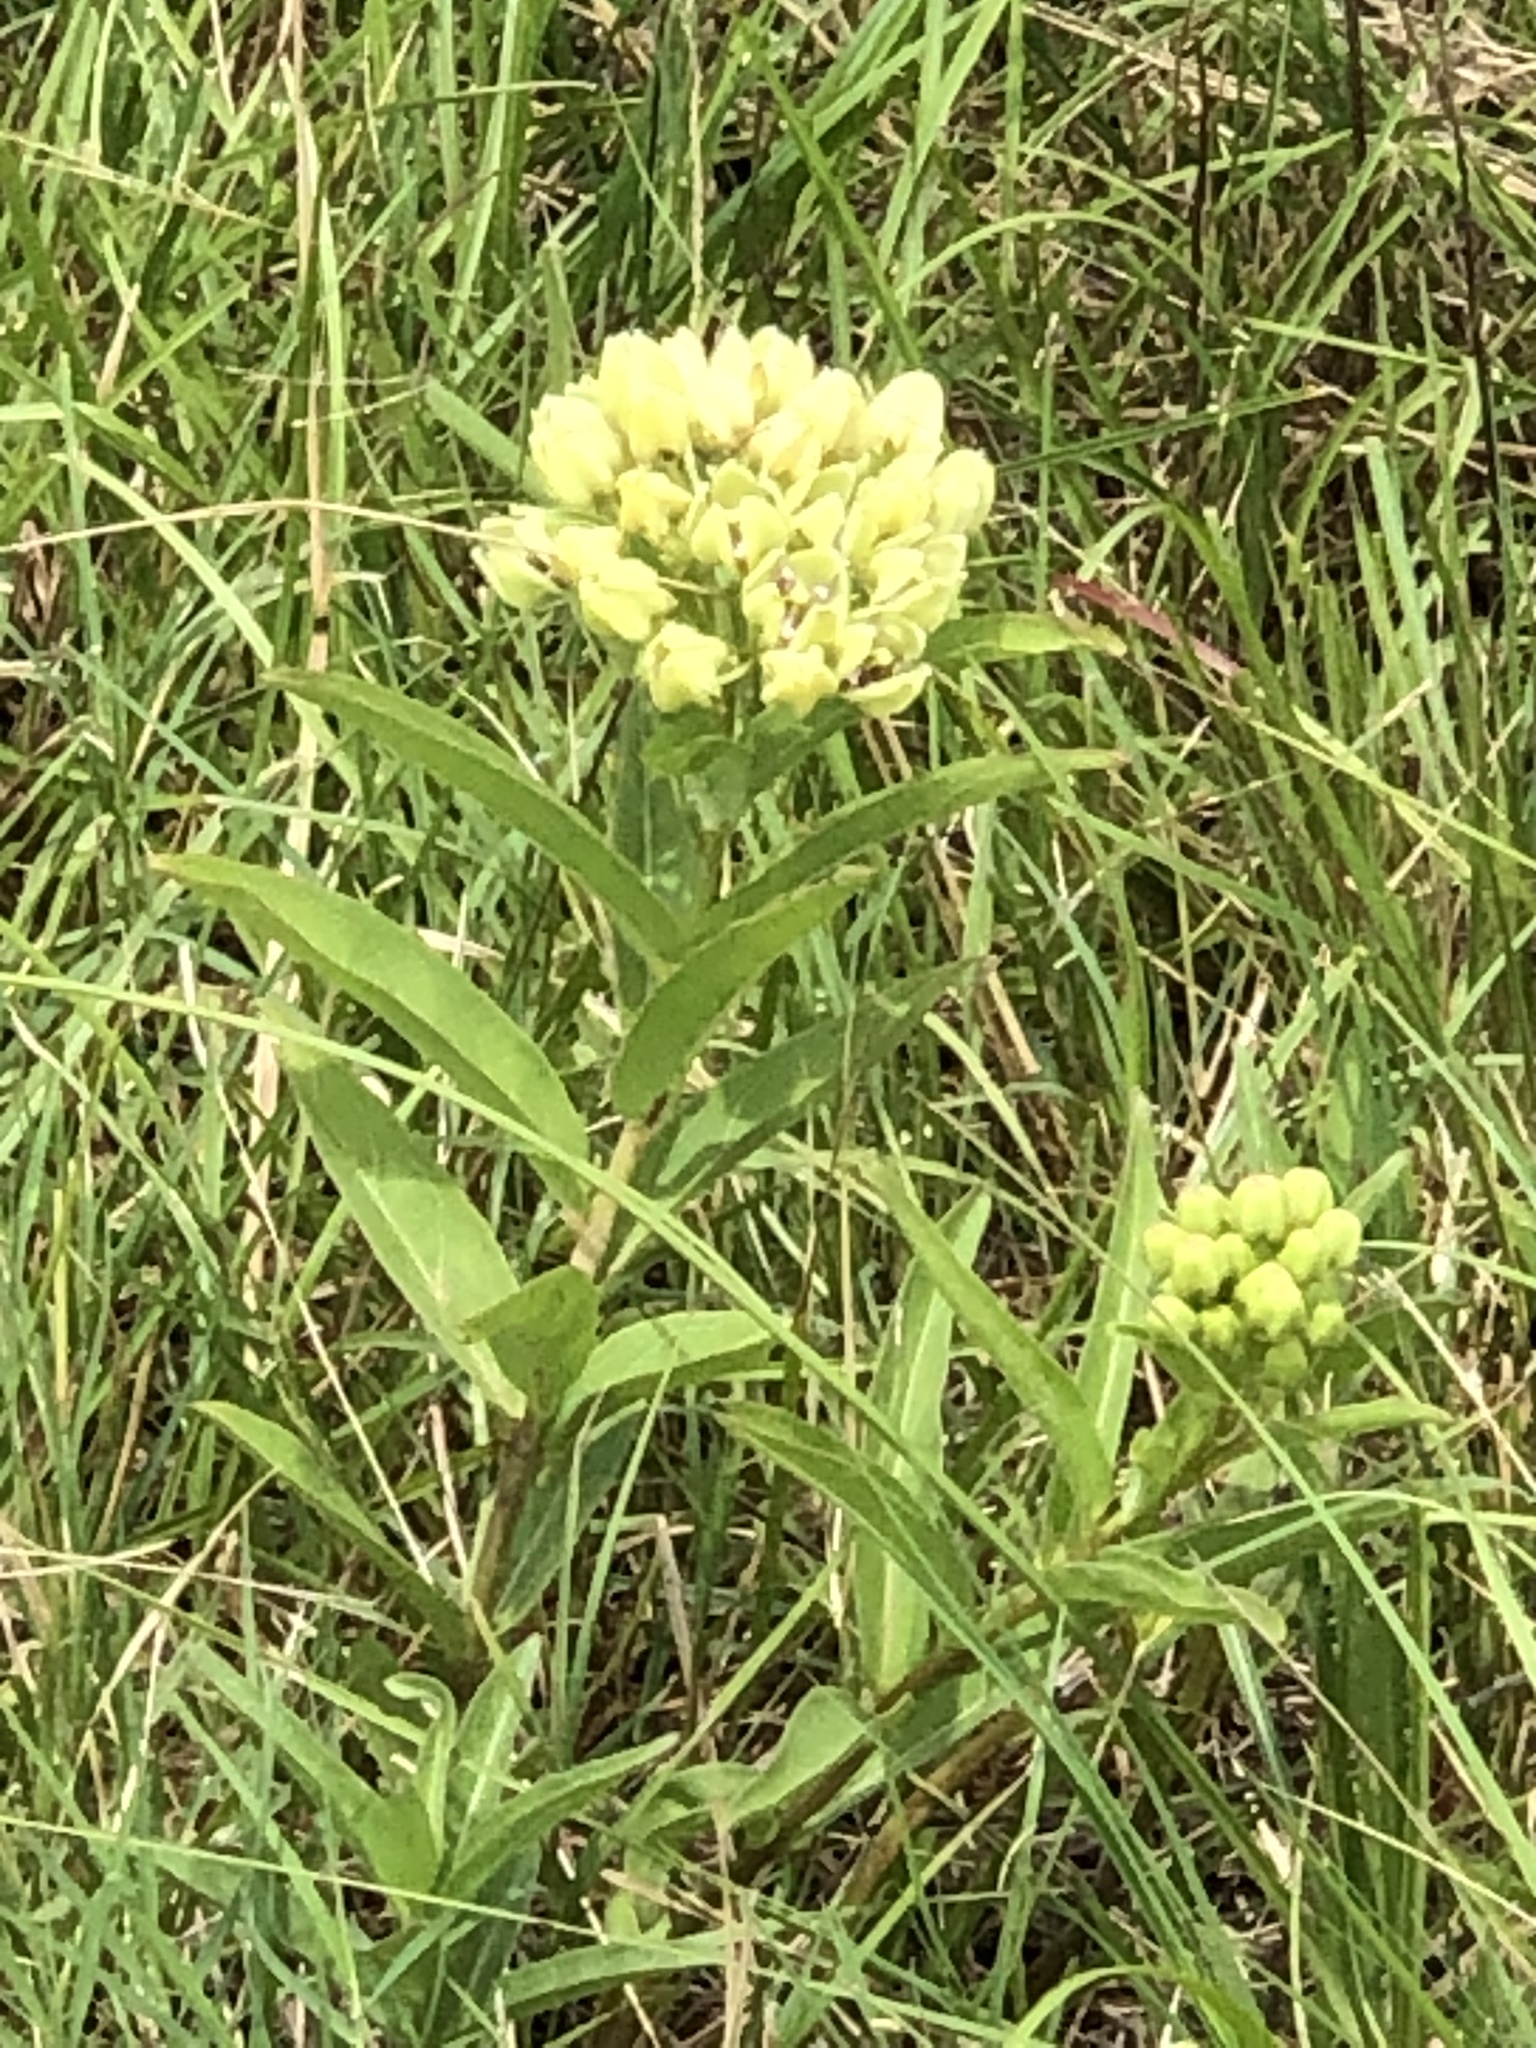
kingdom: Plantae
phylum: Tracheophyta
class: Magnoliopsida
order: Gentianales
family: Apocynaceae
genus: Asclepias
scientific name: Asclepias viridis
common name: Antelope-horns
